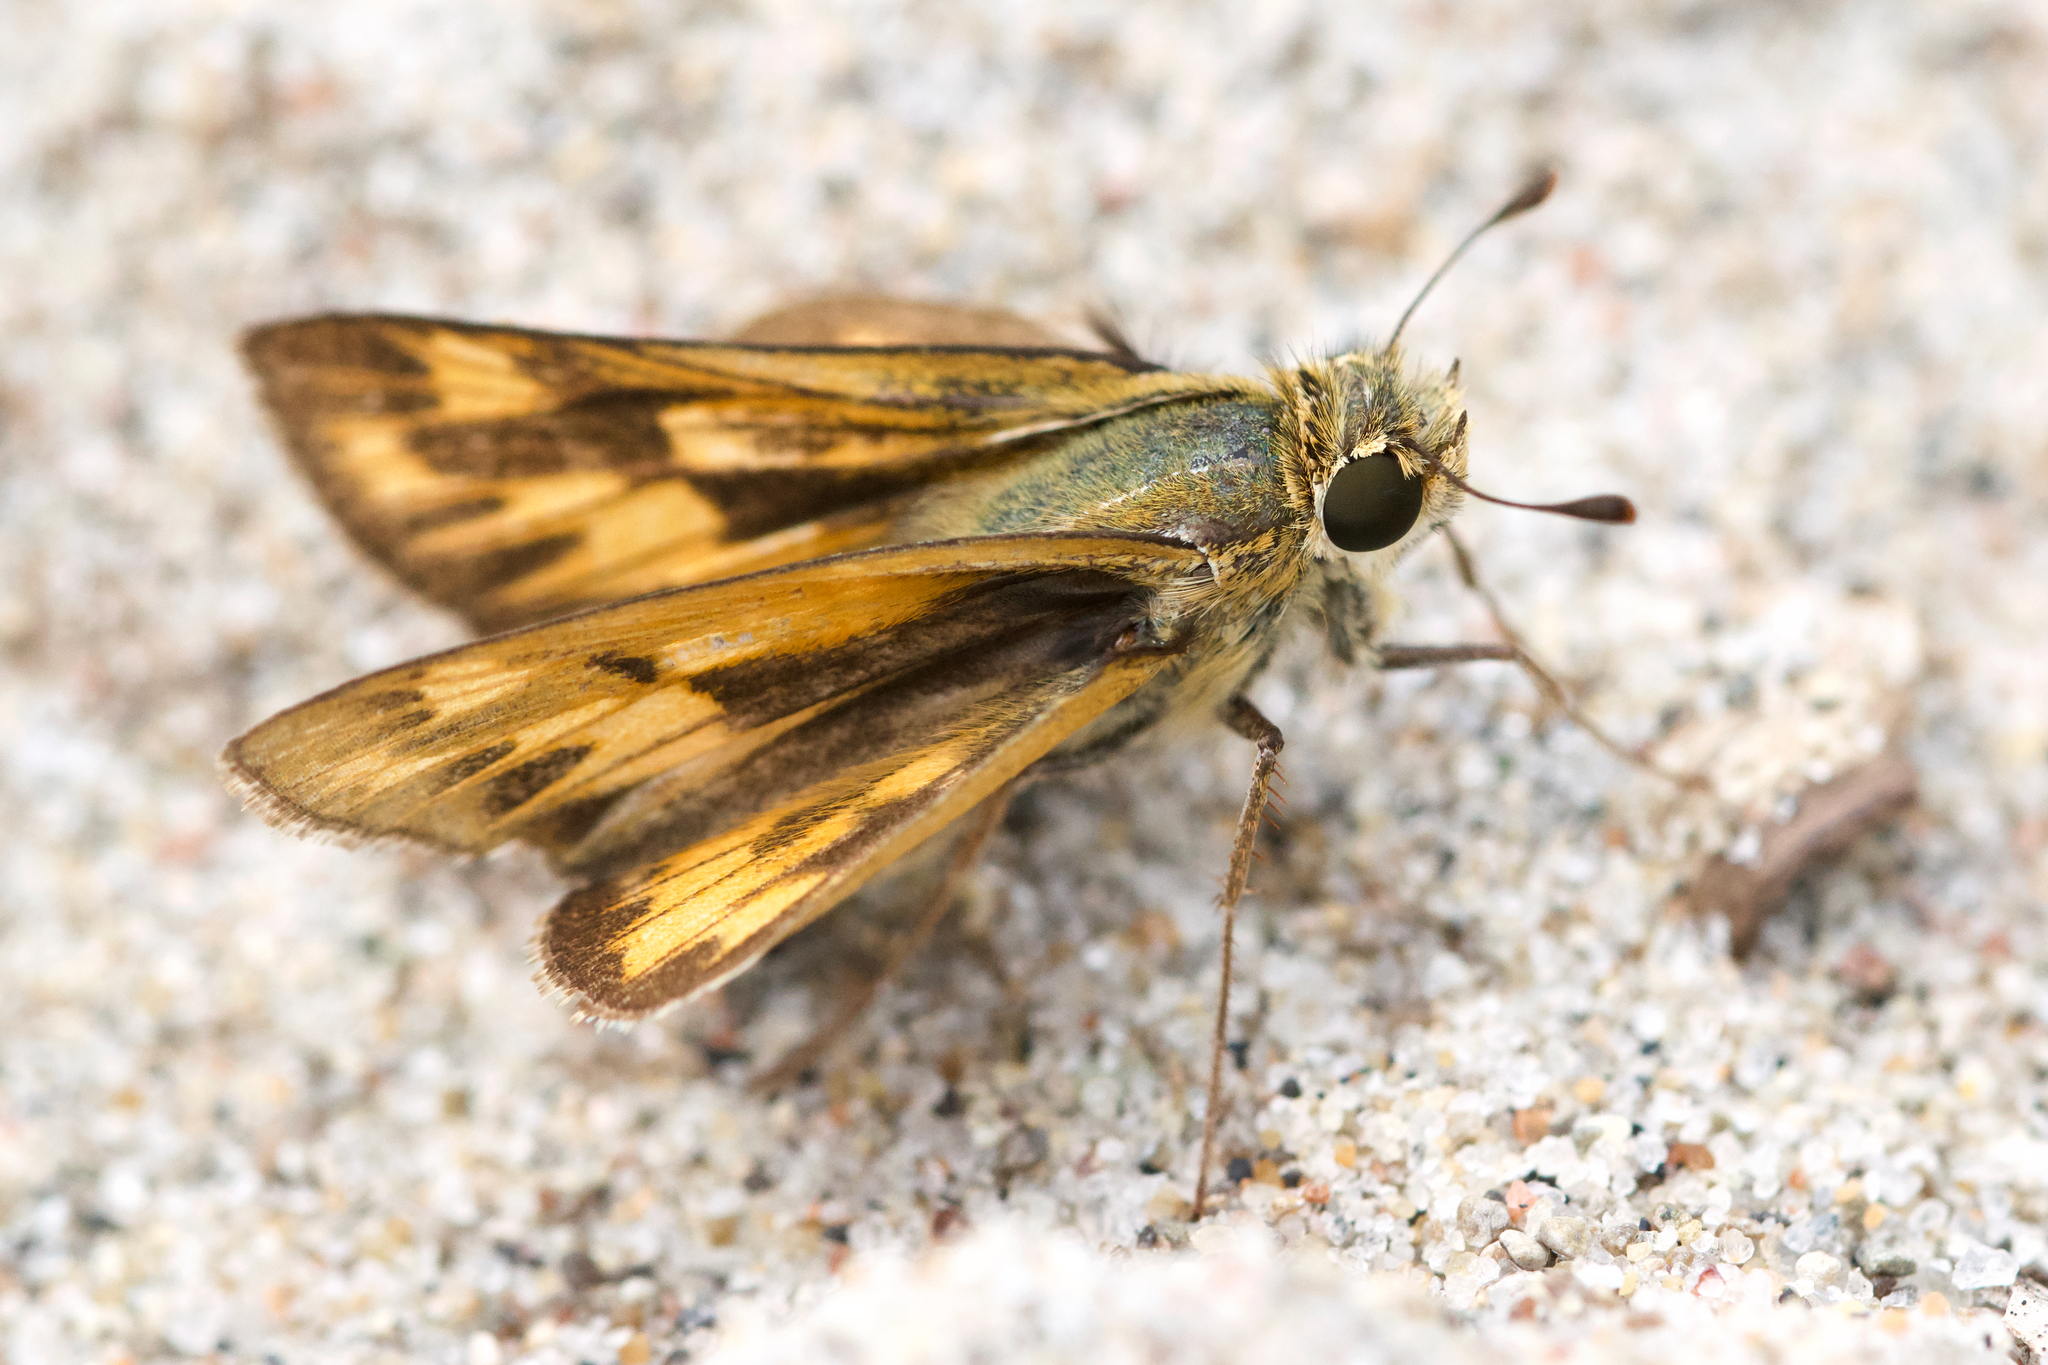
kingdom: Animalia
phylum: Arthropoda
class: Insecta
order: Lepidoptera
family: Hesperiidae
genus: Hylephila
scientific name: Hylephila phyleus
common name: Fiery skipper
